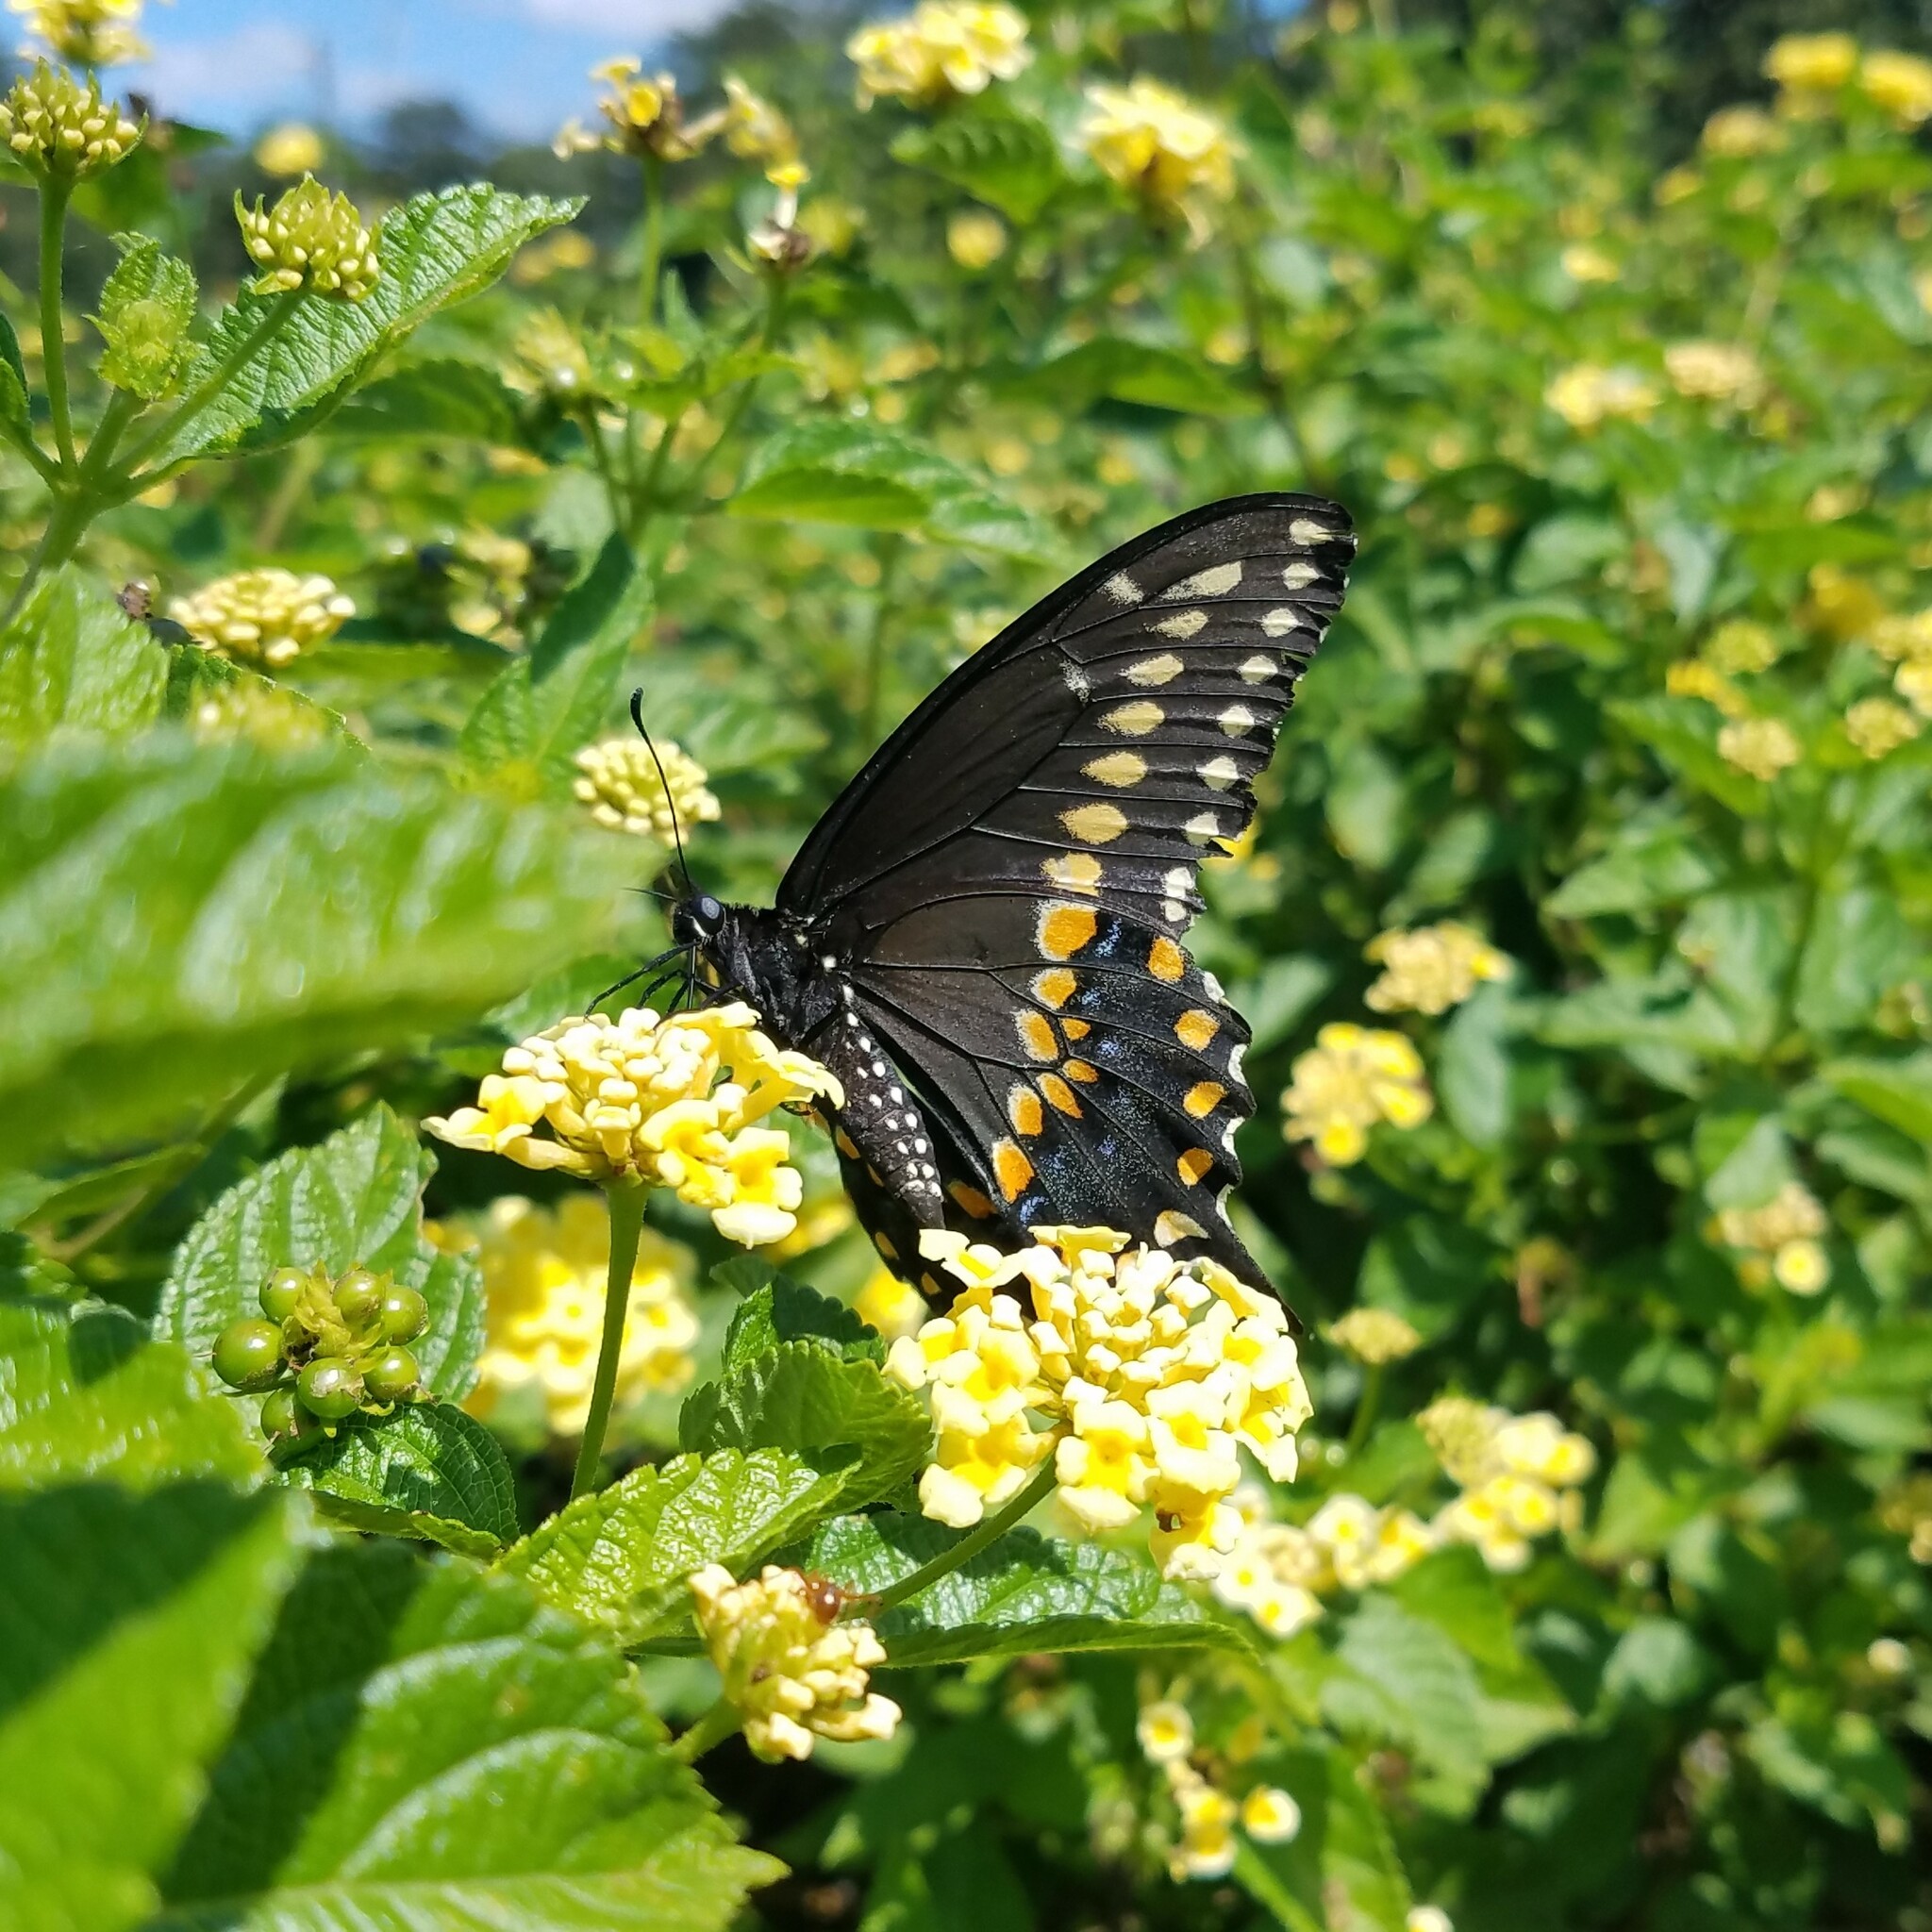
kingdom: Animalia
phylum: Arthropoda
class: Insecta
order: Lepidoptera
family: Papilionidae
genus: Papilio
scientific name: Papilio polyxenes
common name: Black swallowtail
